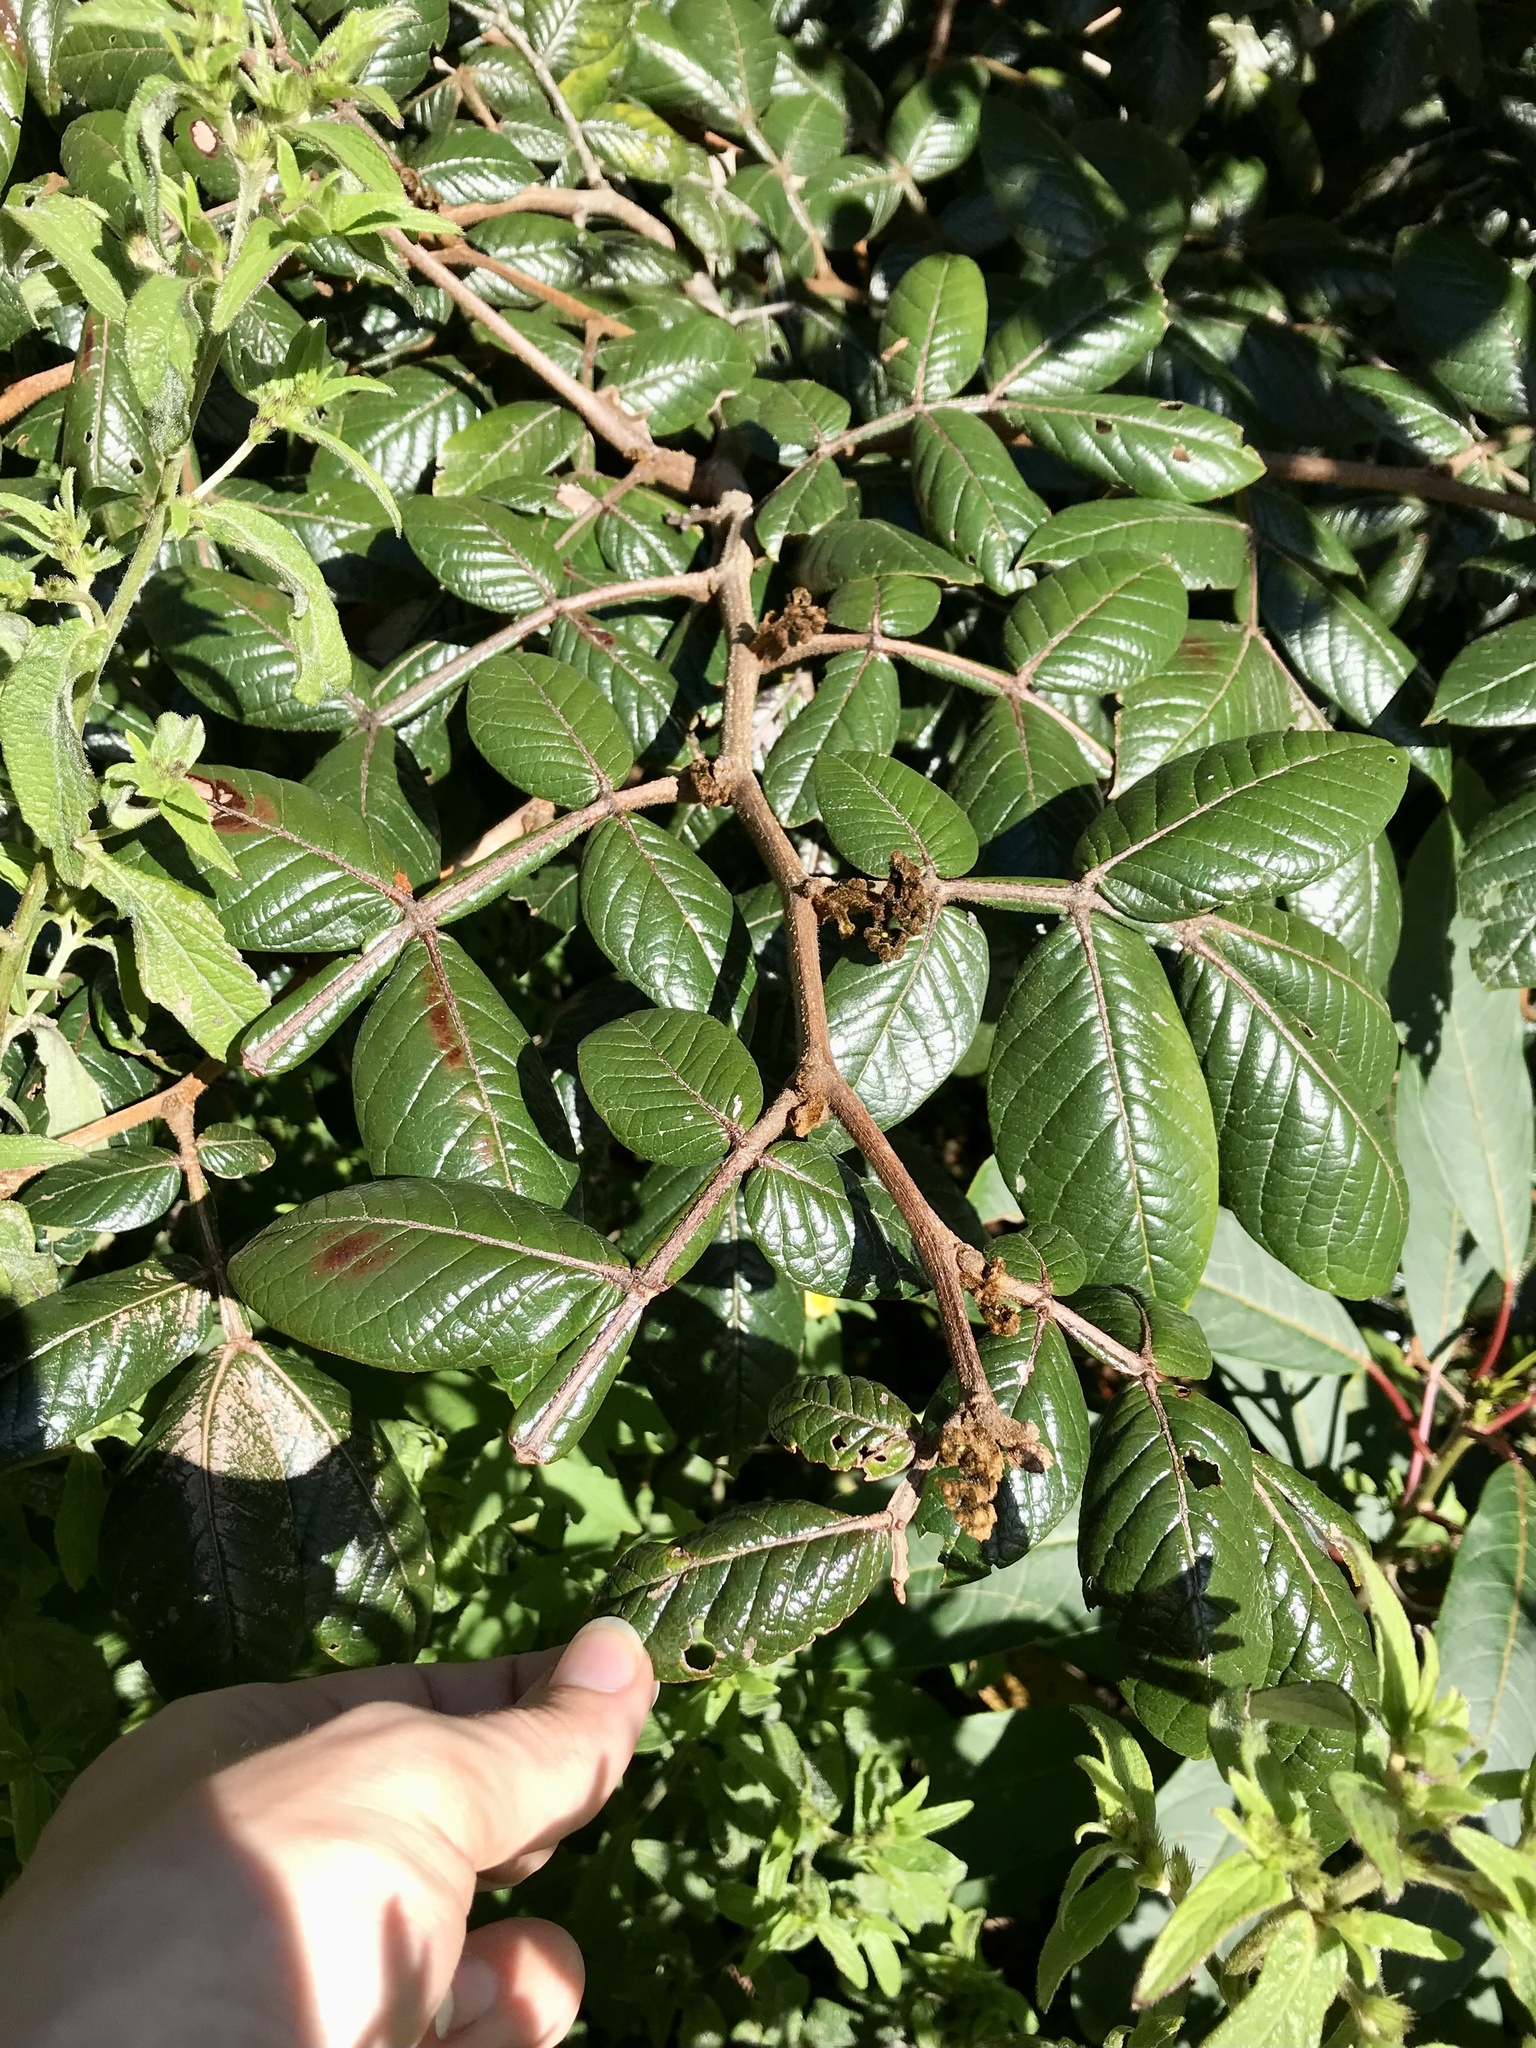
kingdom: Plantae
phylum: Tracheophyta
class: Magnoliopsida
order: Fabales
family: Fabaceae
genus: Inga
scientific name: Inga sierrae
